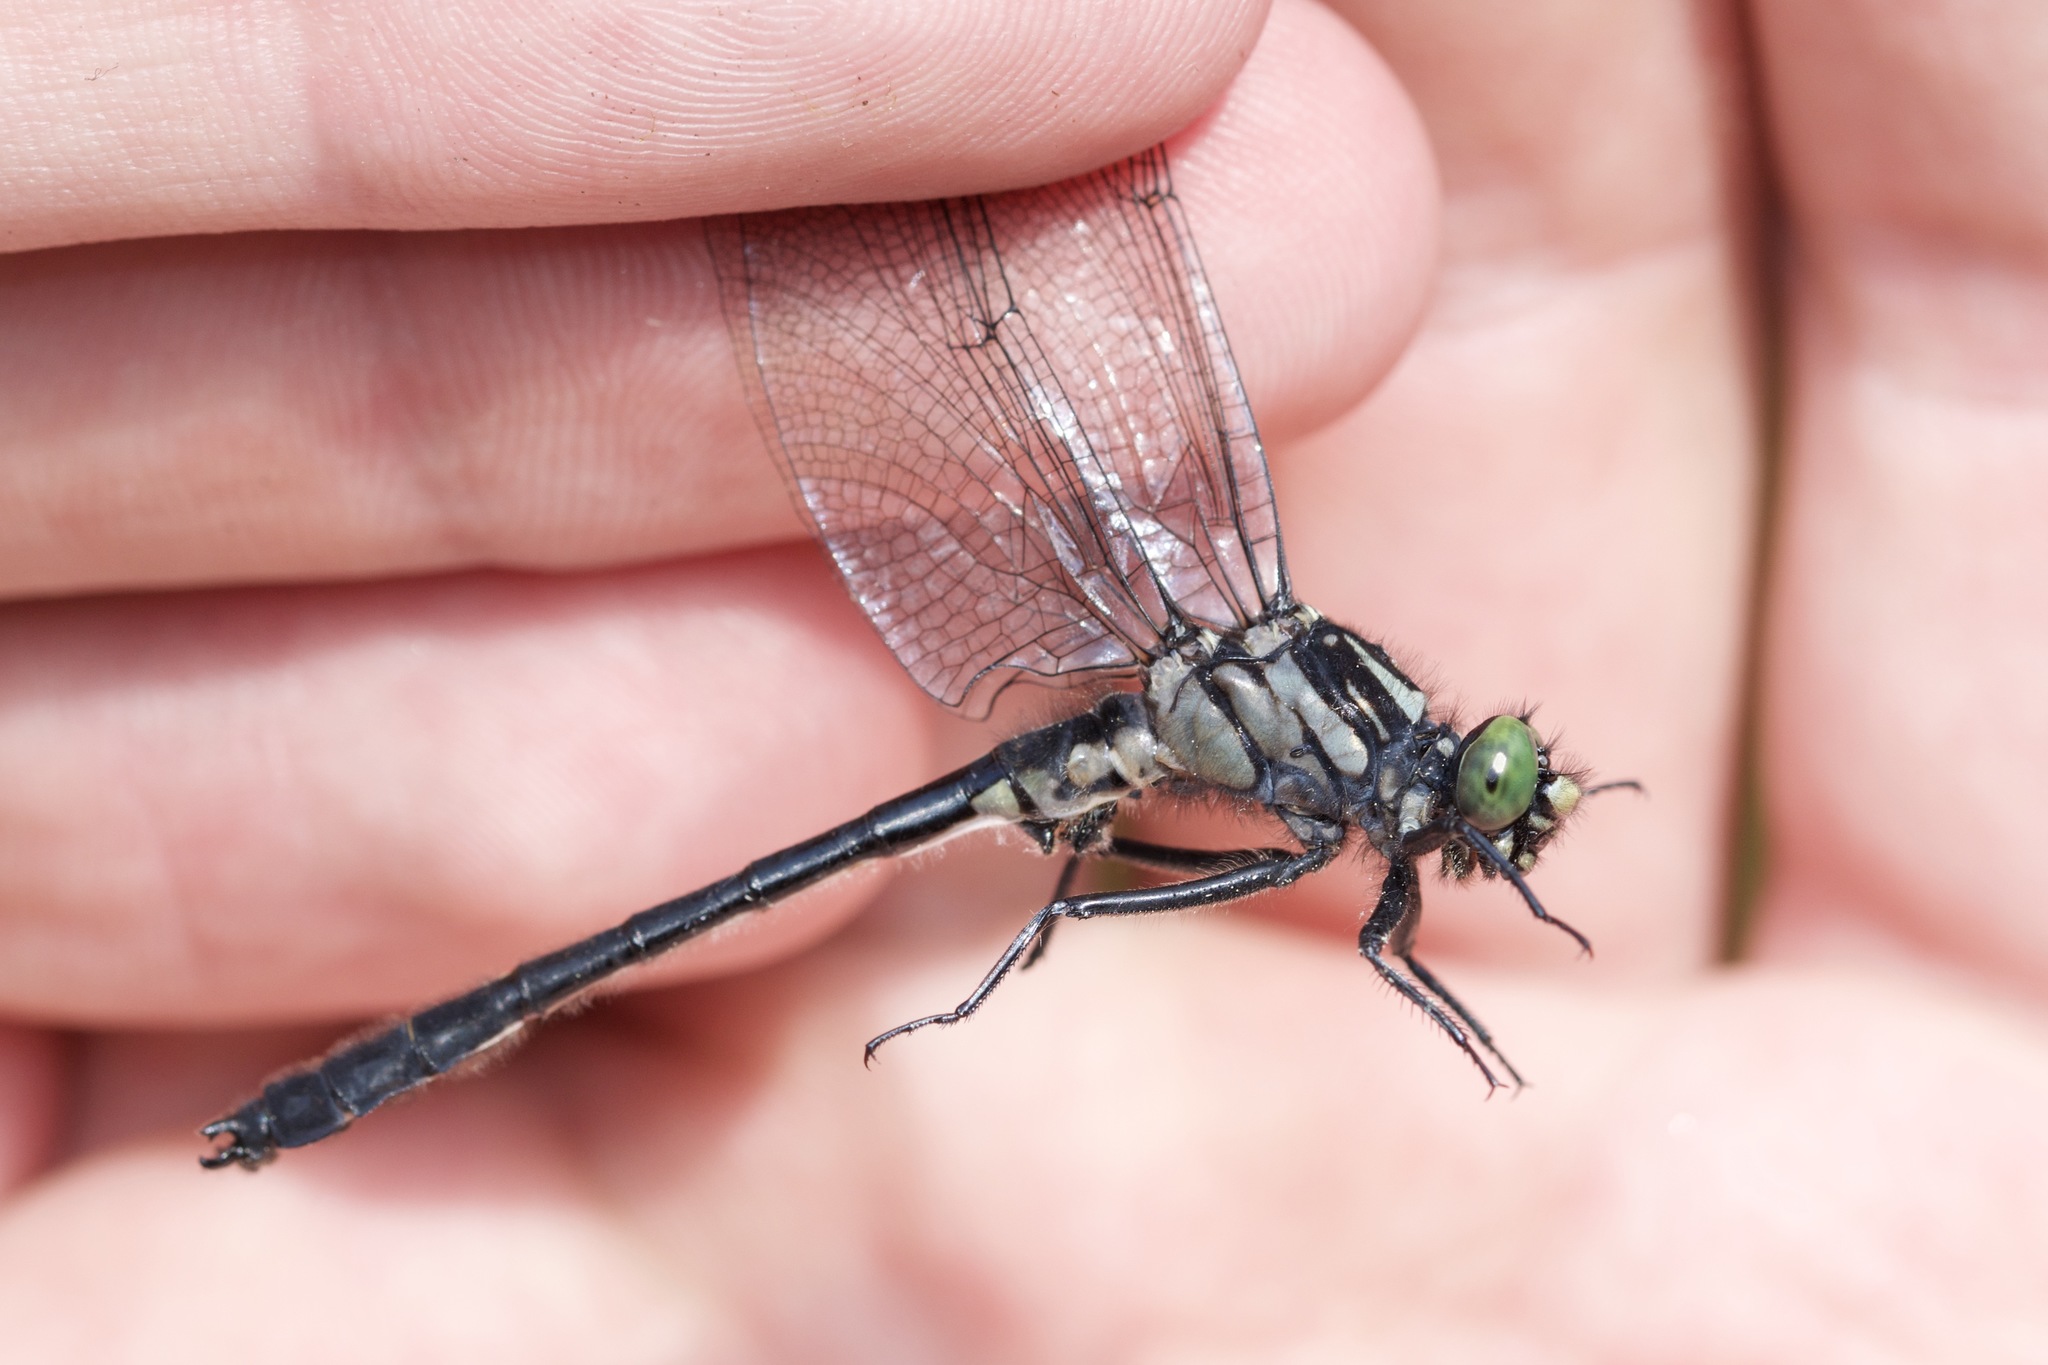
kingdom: Animalia
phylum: Arthropoda
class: Insecta
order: Odonata
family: Gomphidae
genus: Hylogomphus
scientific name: Hylogomphus adelphus
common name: Mustached clubtail
